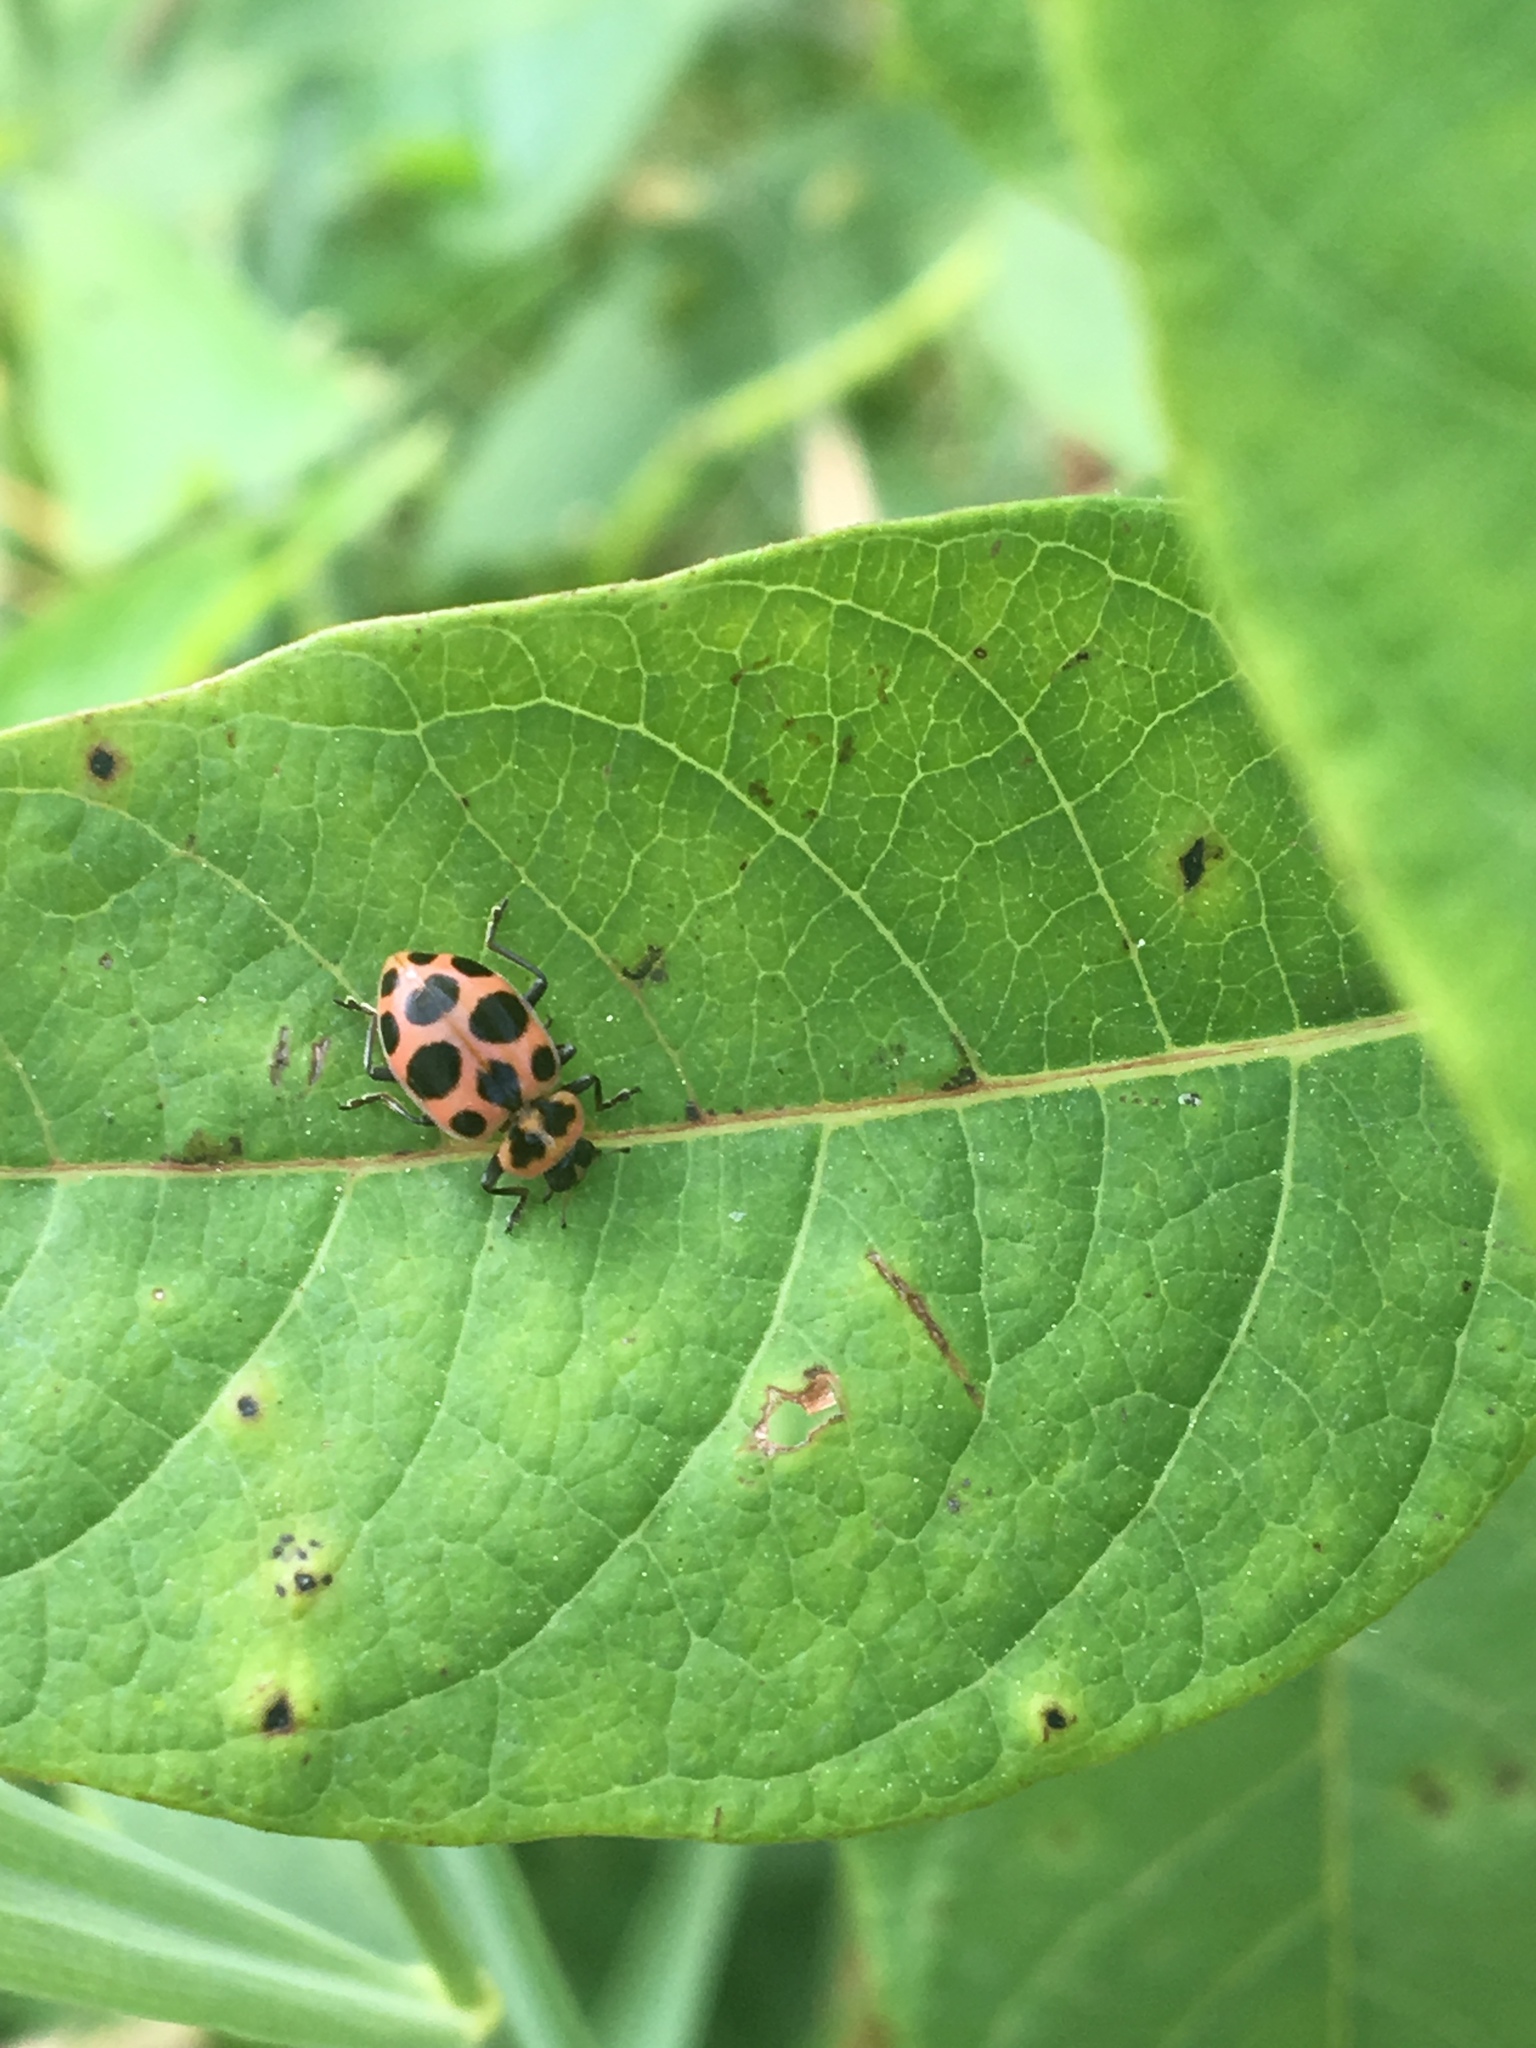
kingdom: Animalia
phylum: Arthropoda
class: Insecta
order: Coleoptera
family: Coccinellidae
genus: Coleomegilla
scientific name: Coleomegilla maculata
